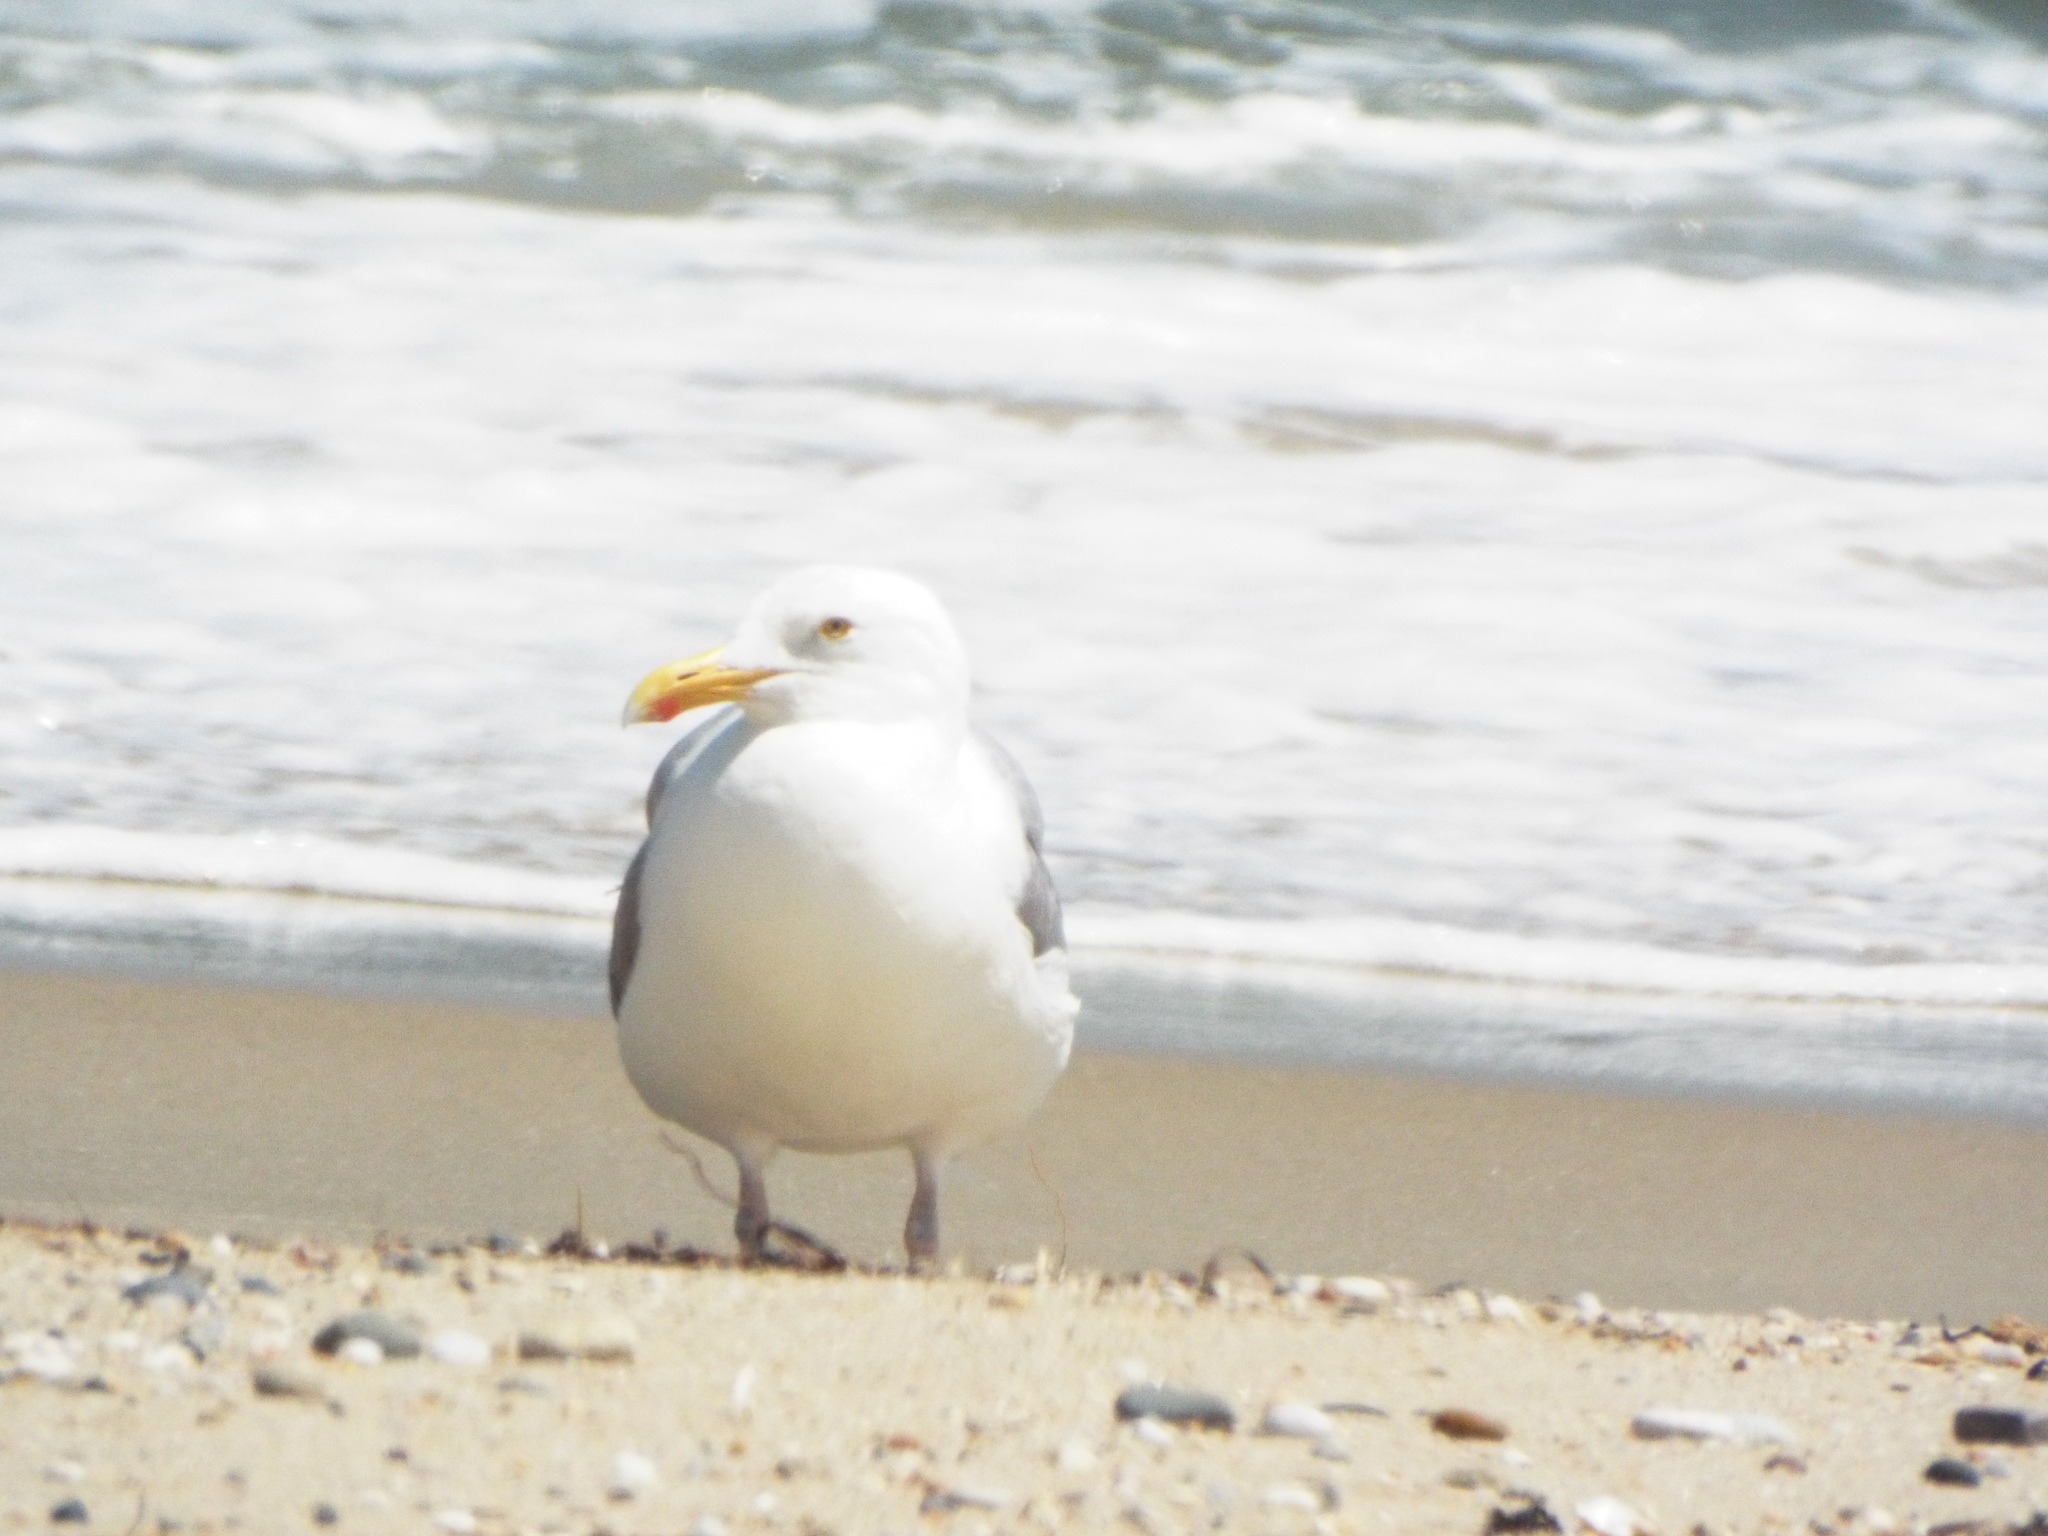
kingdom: Animalia
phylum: Chordata
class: Aves
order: Charadriiformes
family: Laridae
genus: Larus
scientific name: Larus argentatus
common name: Herring gull
